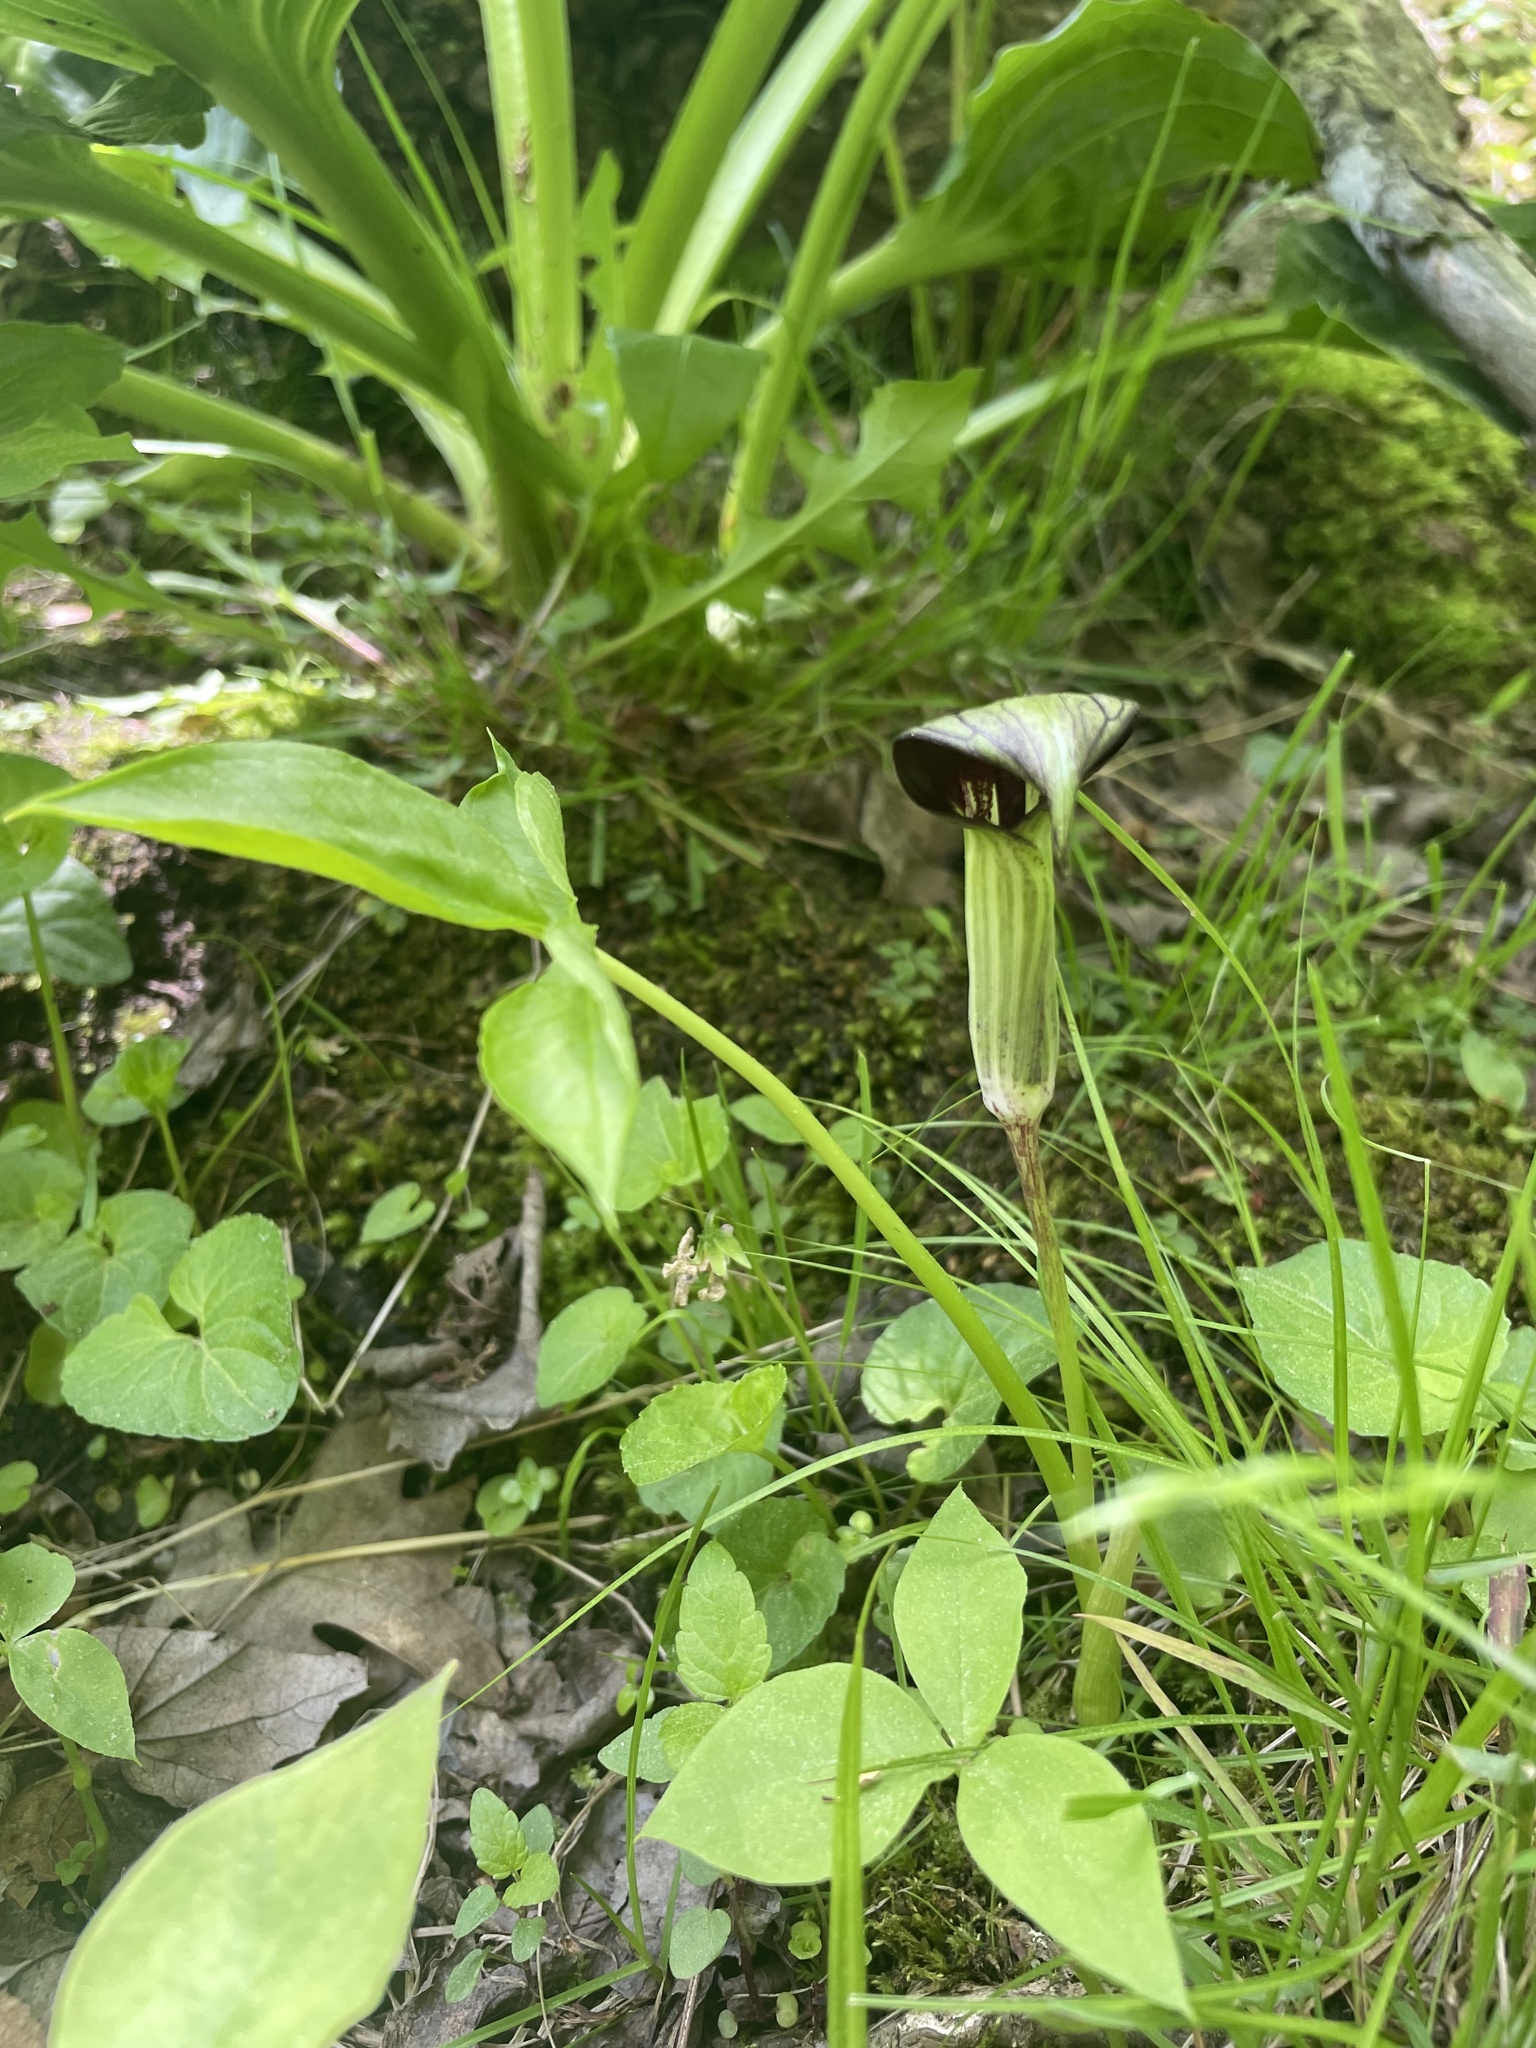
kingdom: Plantae
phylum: Tracheophyta
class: Liliopsida
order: Alismatales
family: Araceae
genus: Arisaema
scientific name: Arisaema triphyllum
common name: Jack-in-the-pulpit
